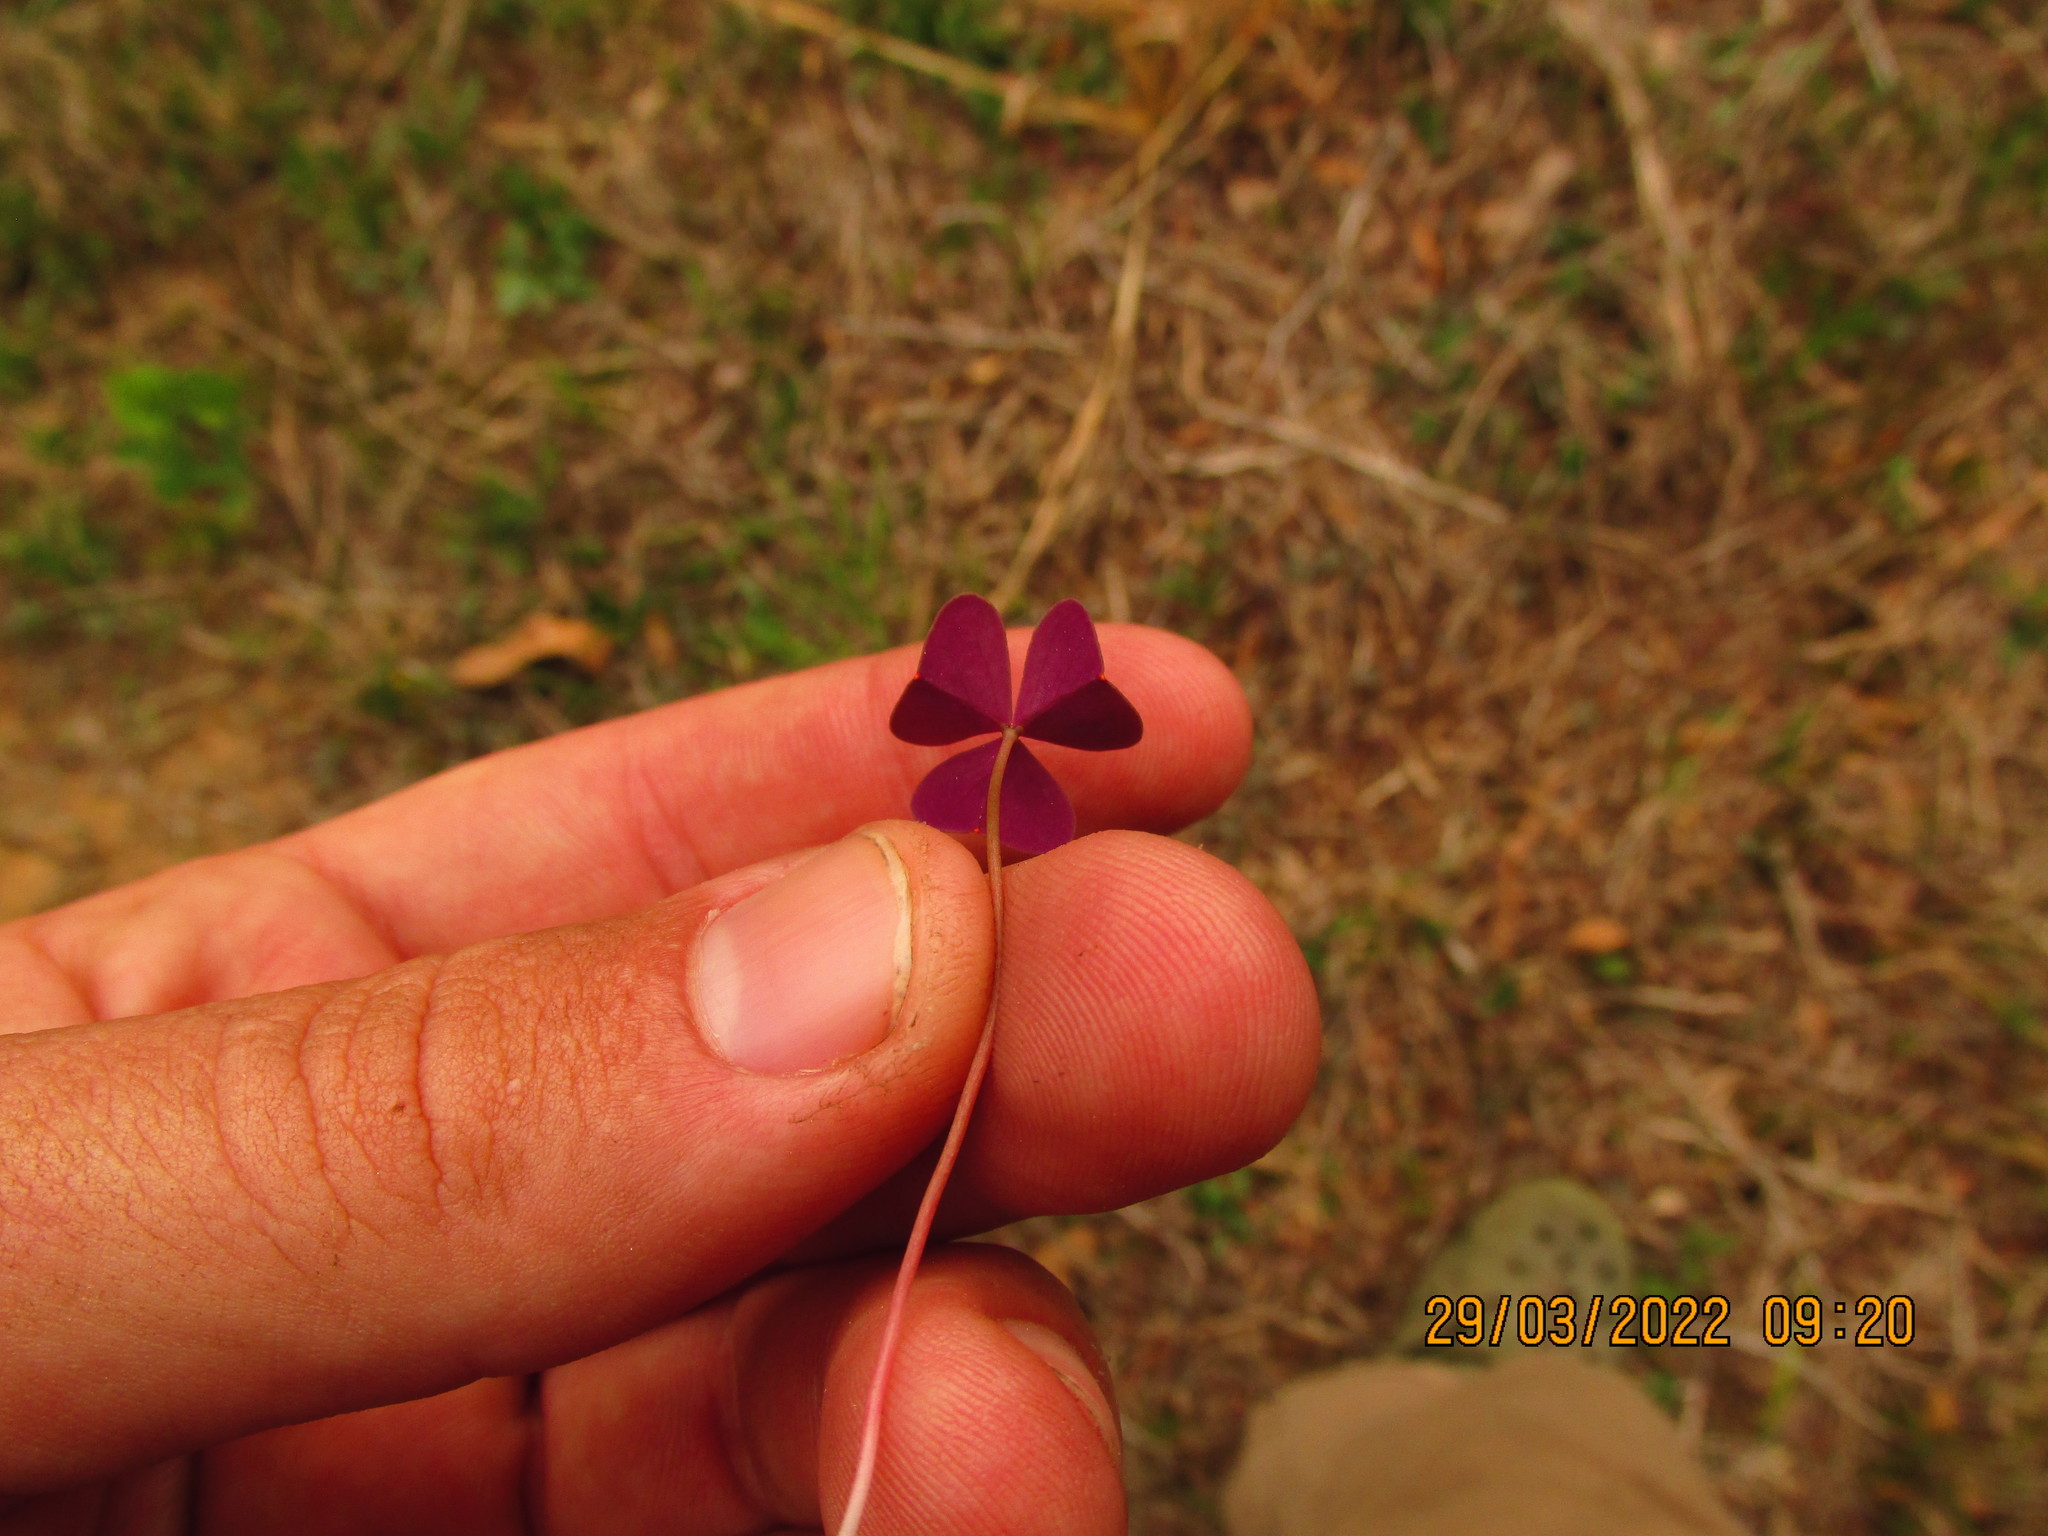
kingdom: Plantae
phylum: Tracheophyta
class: Magnoliopsida
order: Oxalidales
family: Oxalidaceae
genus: Oxalis
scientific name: Oxalis violacea
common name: Violet wood-sorrel
